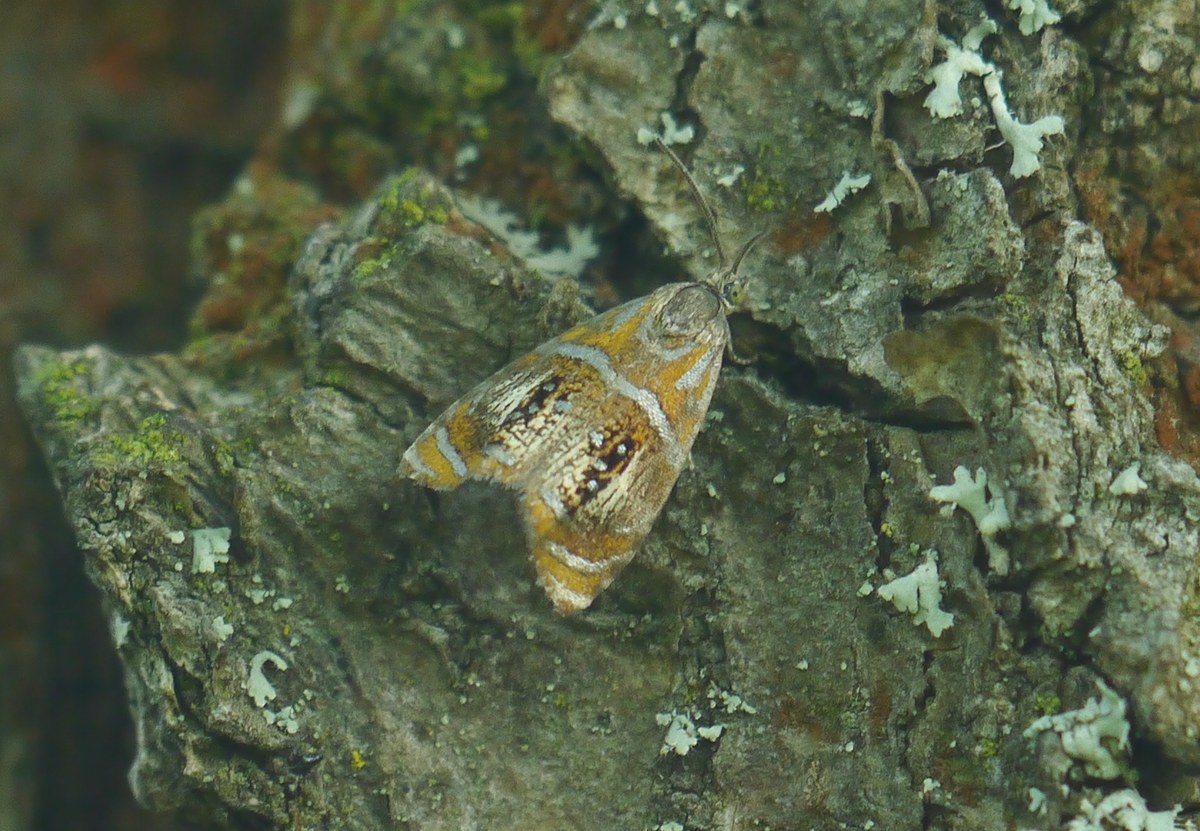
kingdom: Animalia
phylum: Arthropoda
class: Insecta
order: Lepidoptera
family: Tortricidae
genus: Olethreutes
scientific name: Olethreutes arcuella
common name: Arched marble
